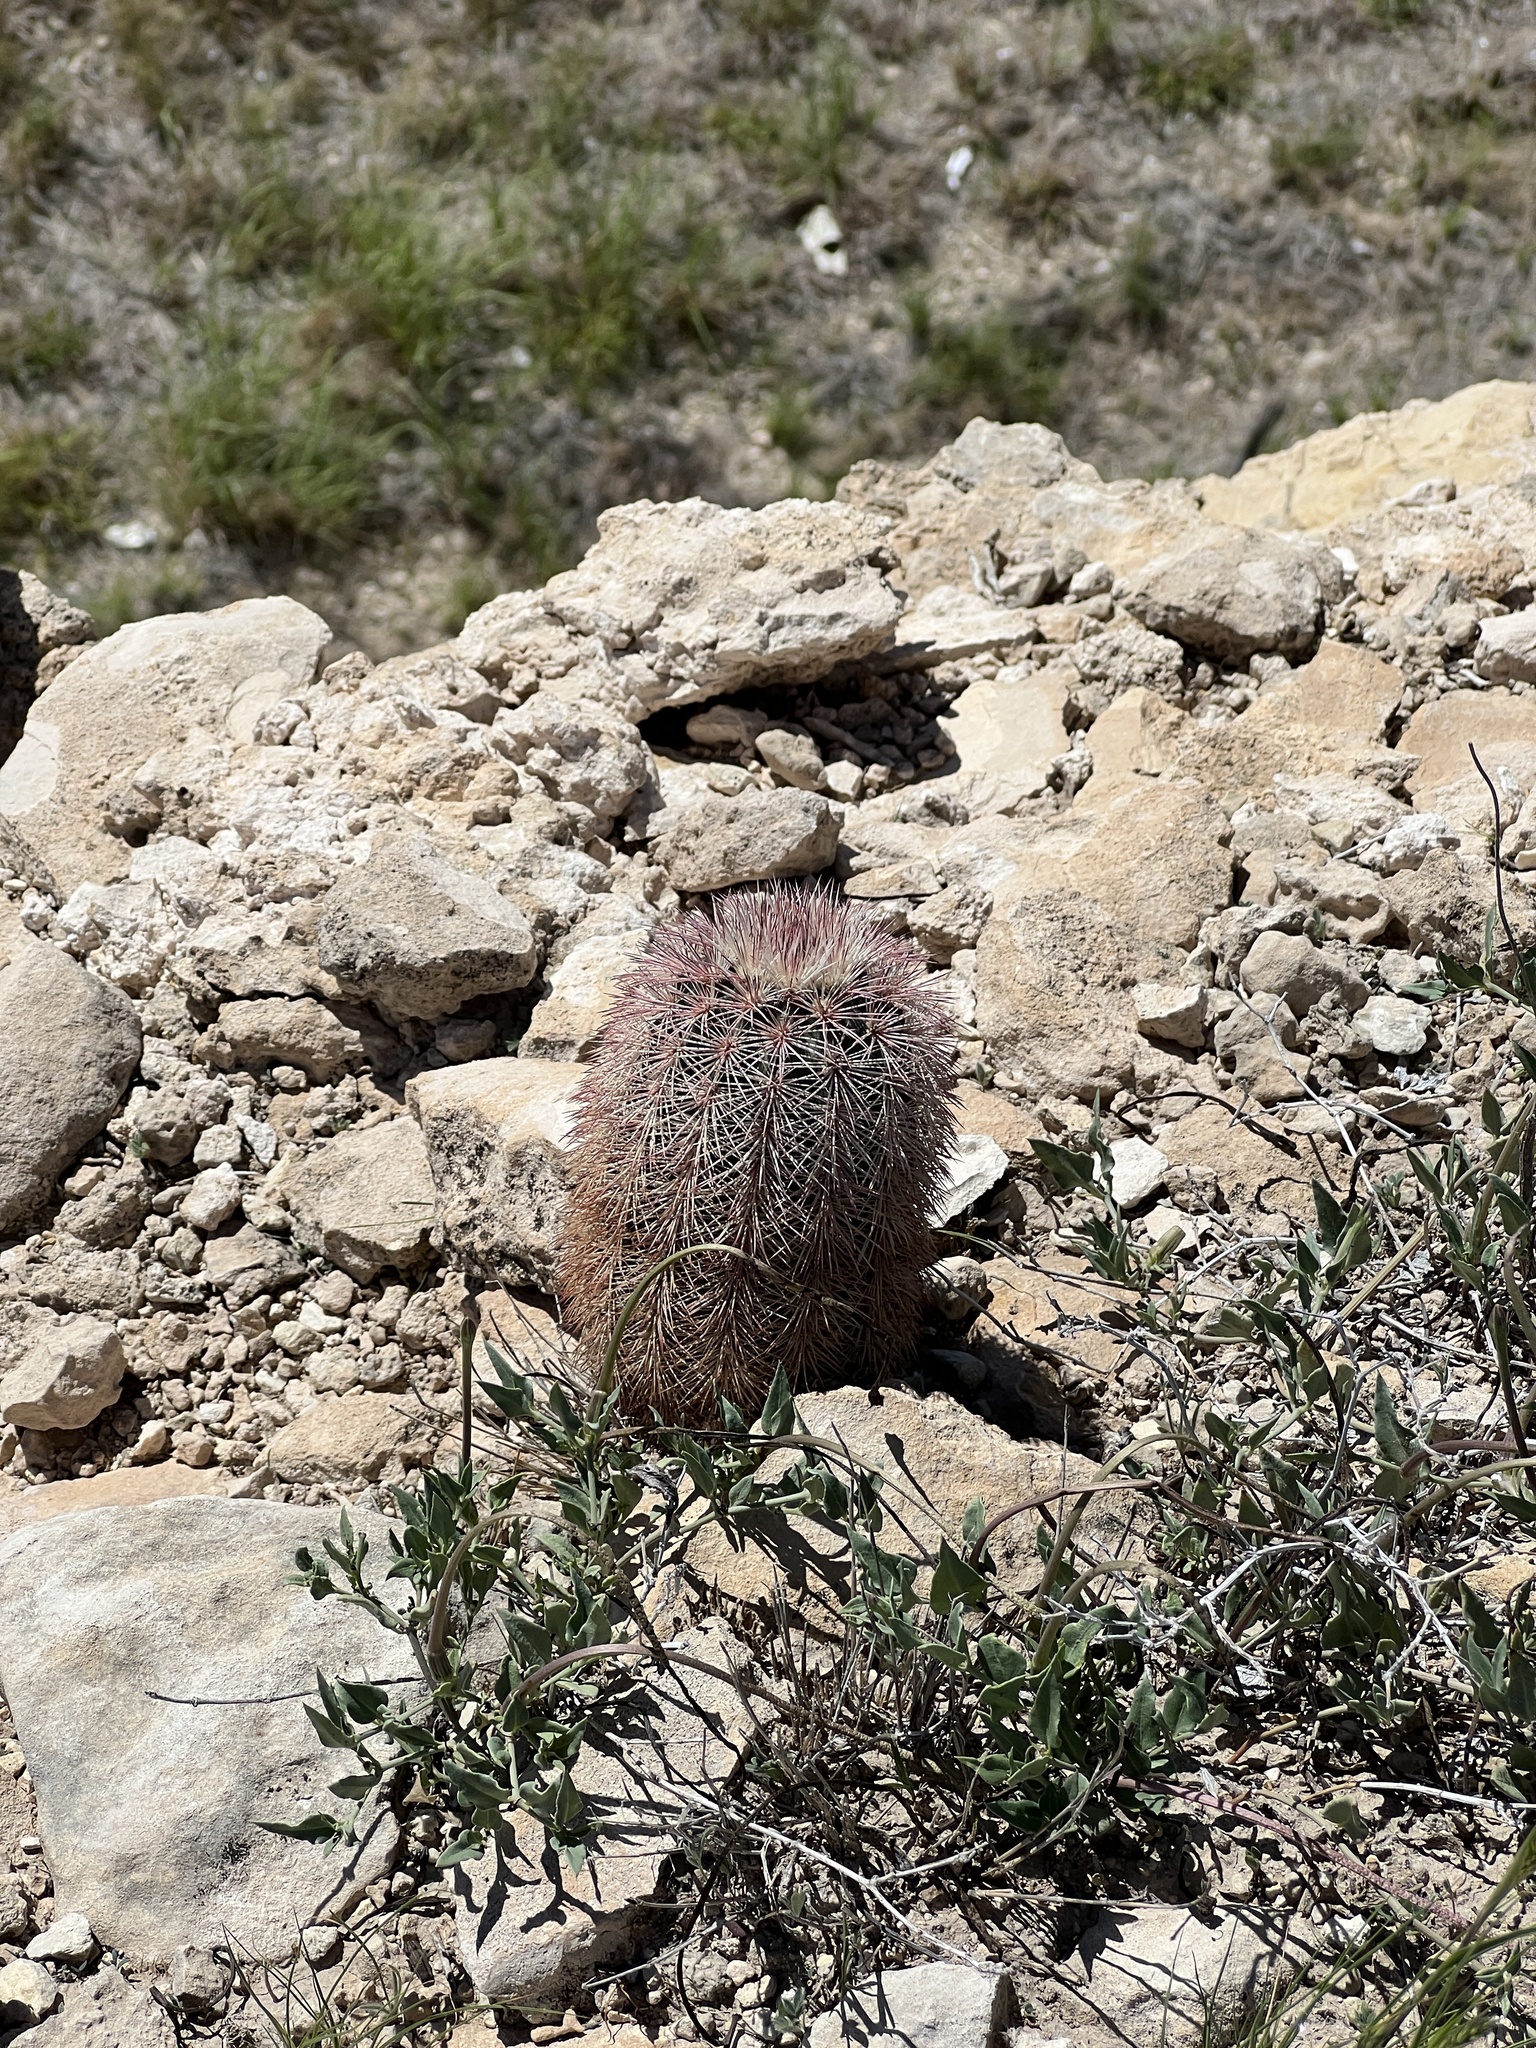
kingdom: Plantae
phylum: Tracheophyta
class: Magnoliopsida
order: Caryophyllales
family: Cactaceae
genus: Echinocereus
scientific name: Echinocereus dasyacanthus
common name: Spiny hedgehog cactus
